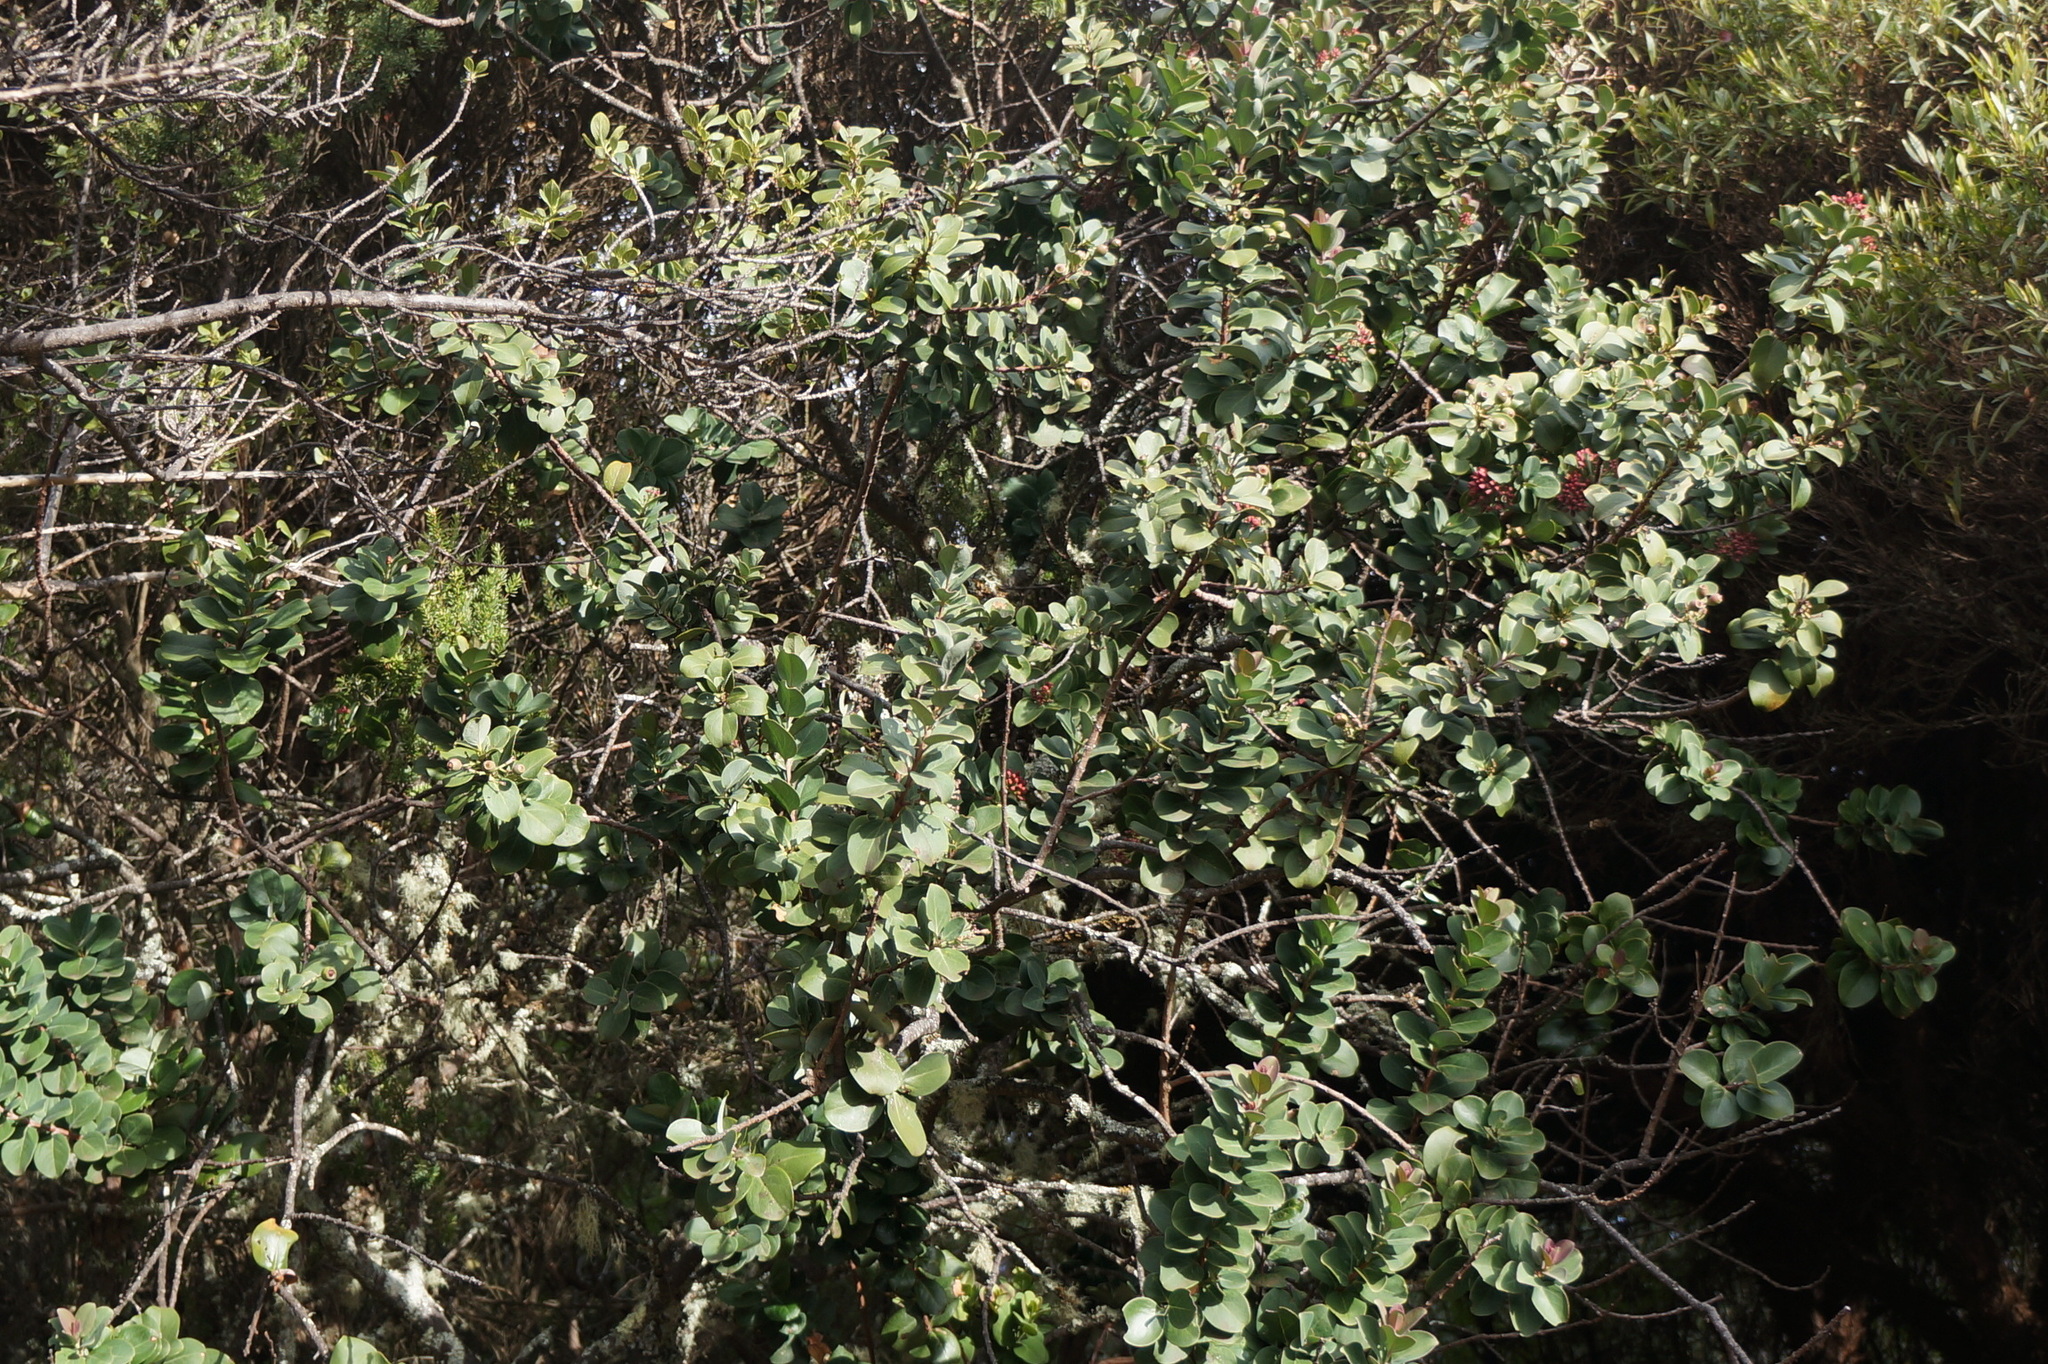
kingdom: Plantae
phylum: Tracheophyta
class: Magnoliopsida
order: Santalales
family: Santalaceae
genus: Santalum
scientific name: Santalum haleakalae
